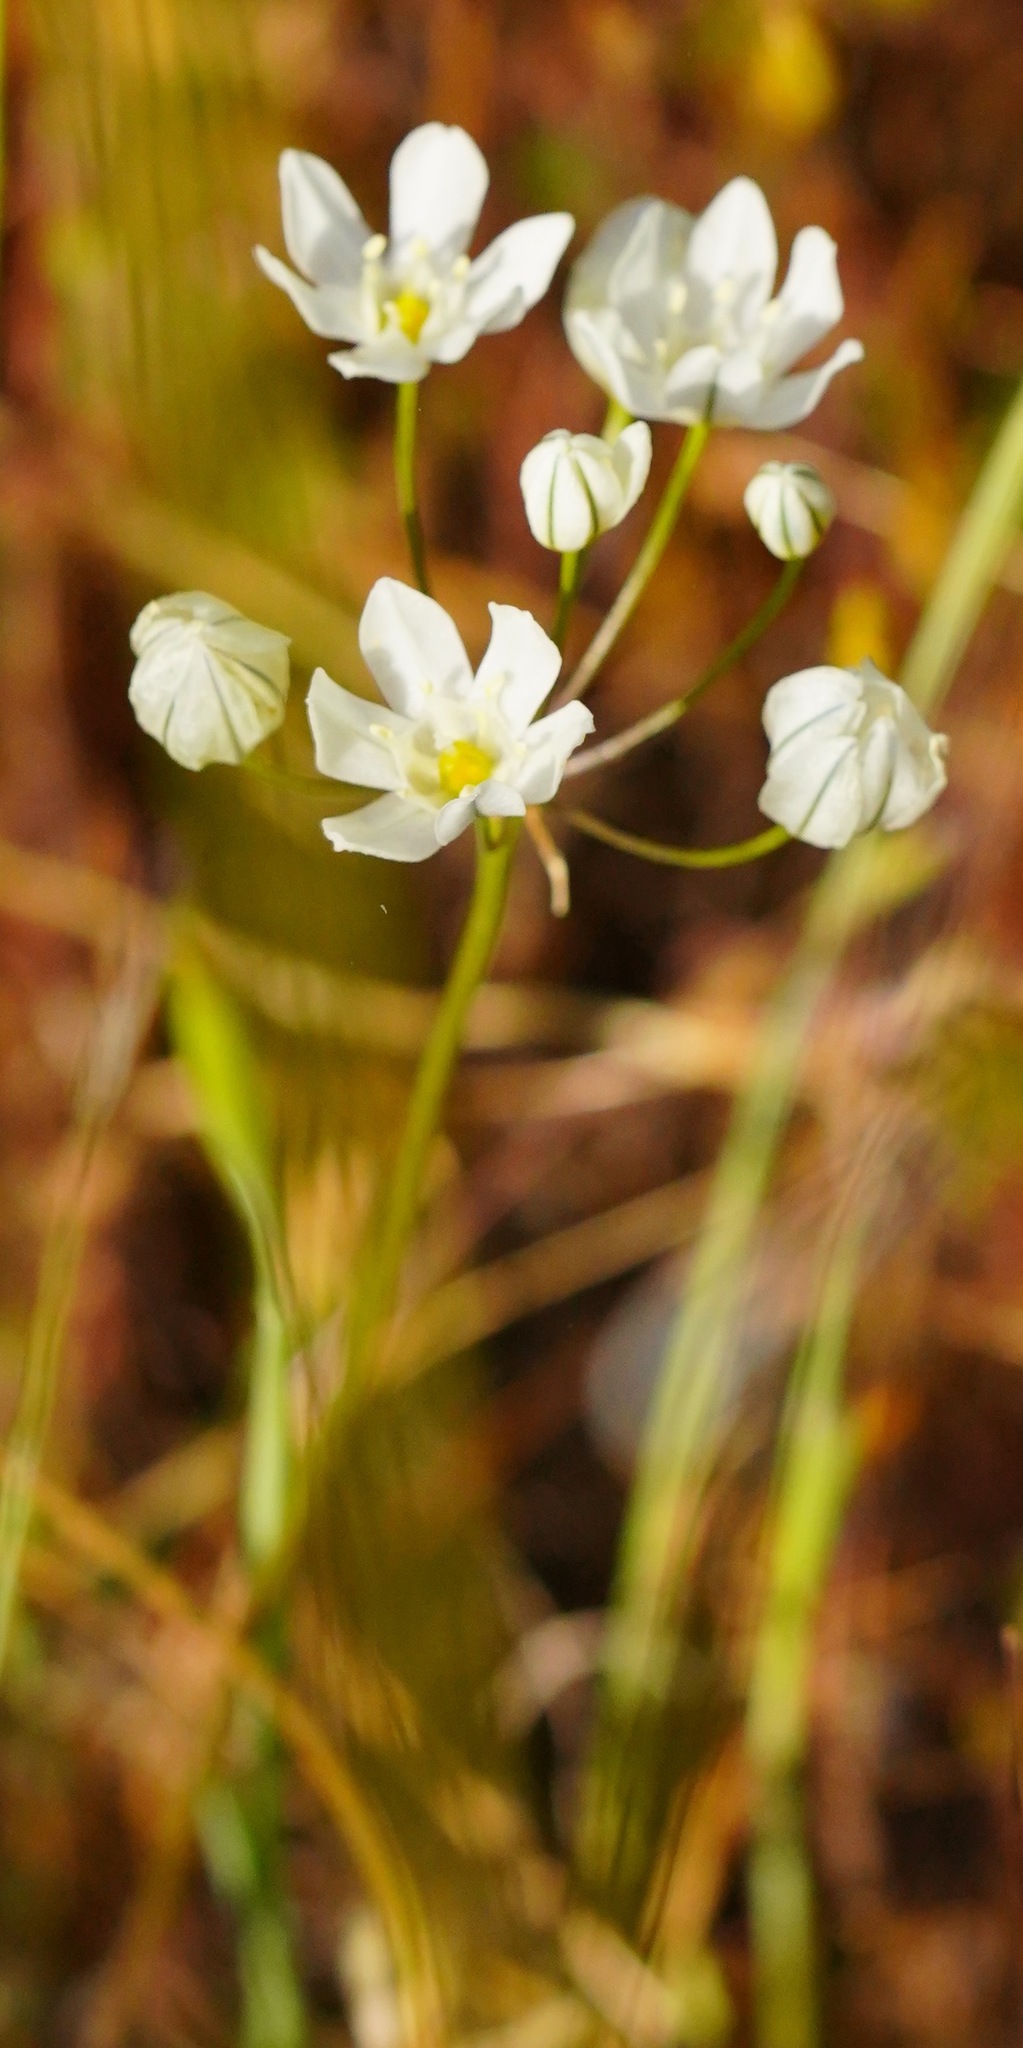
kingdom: Plantae
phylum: Tracheophyta
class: Liliopsida
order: Asparagales
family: Asparagaceae
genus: Triteleia
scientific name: Triteleia hyacinthina
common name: White brodiaea
